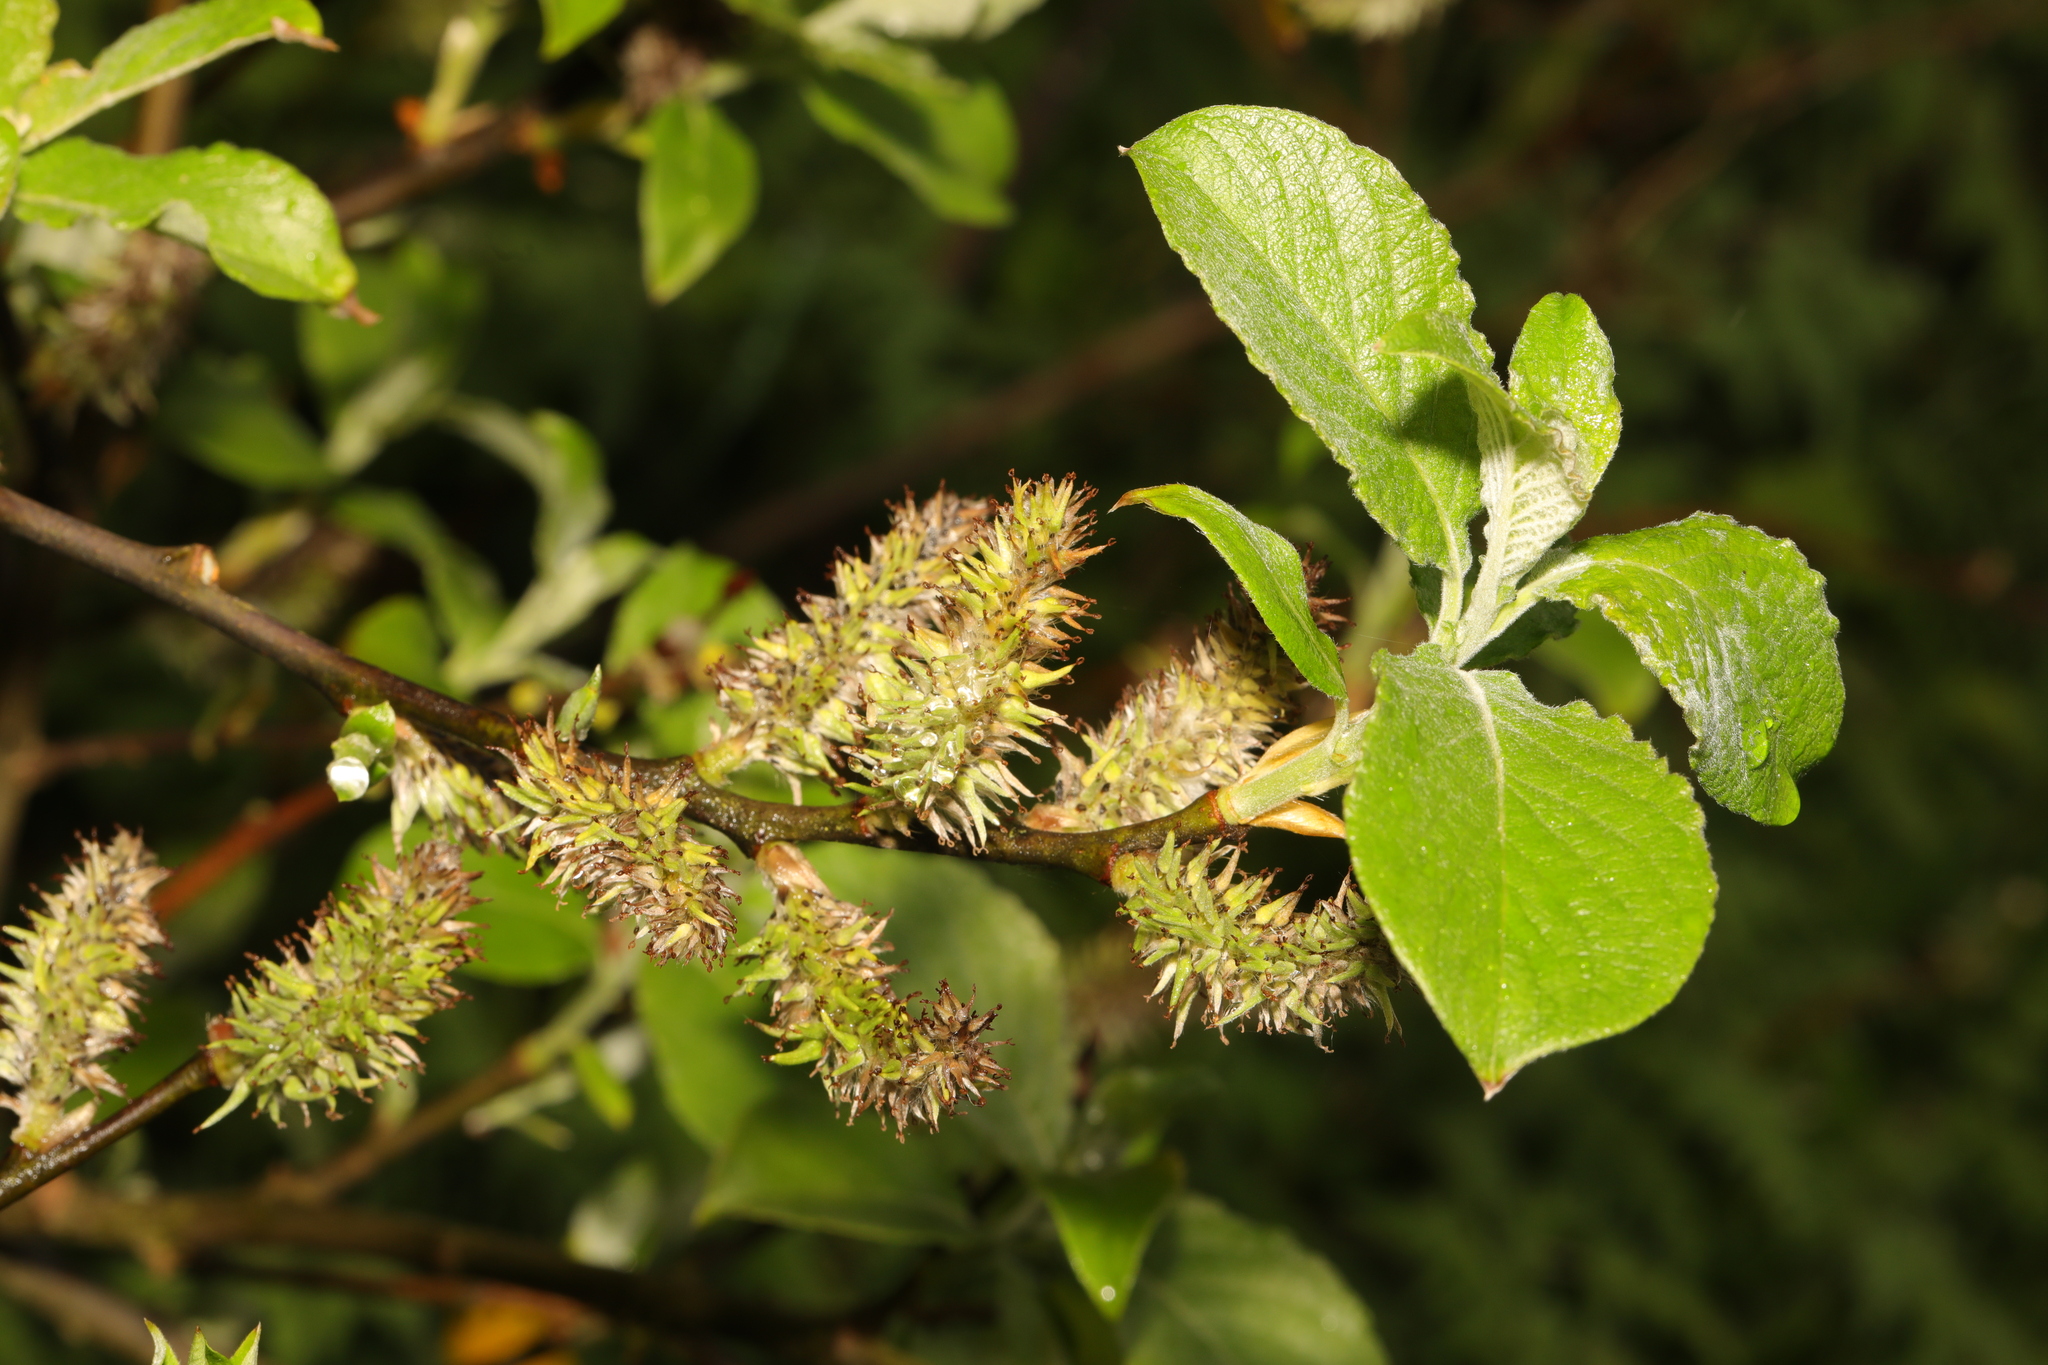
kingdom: Plantae
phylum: Tracheophyta
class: Magnoliopsida
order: Malpighiales
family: Salicaceae
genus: Salix
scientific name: Salix caprea
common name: Goat willow
